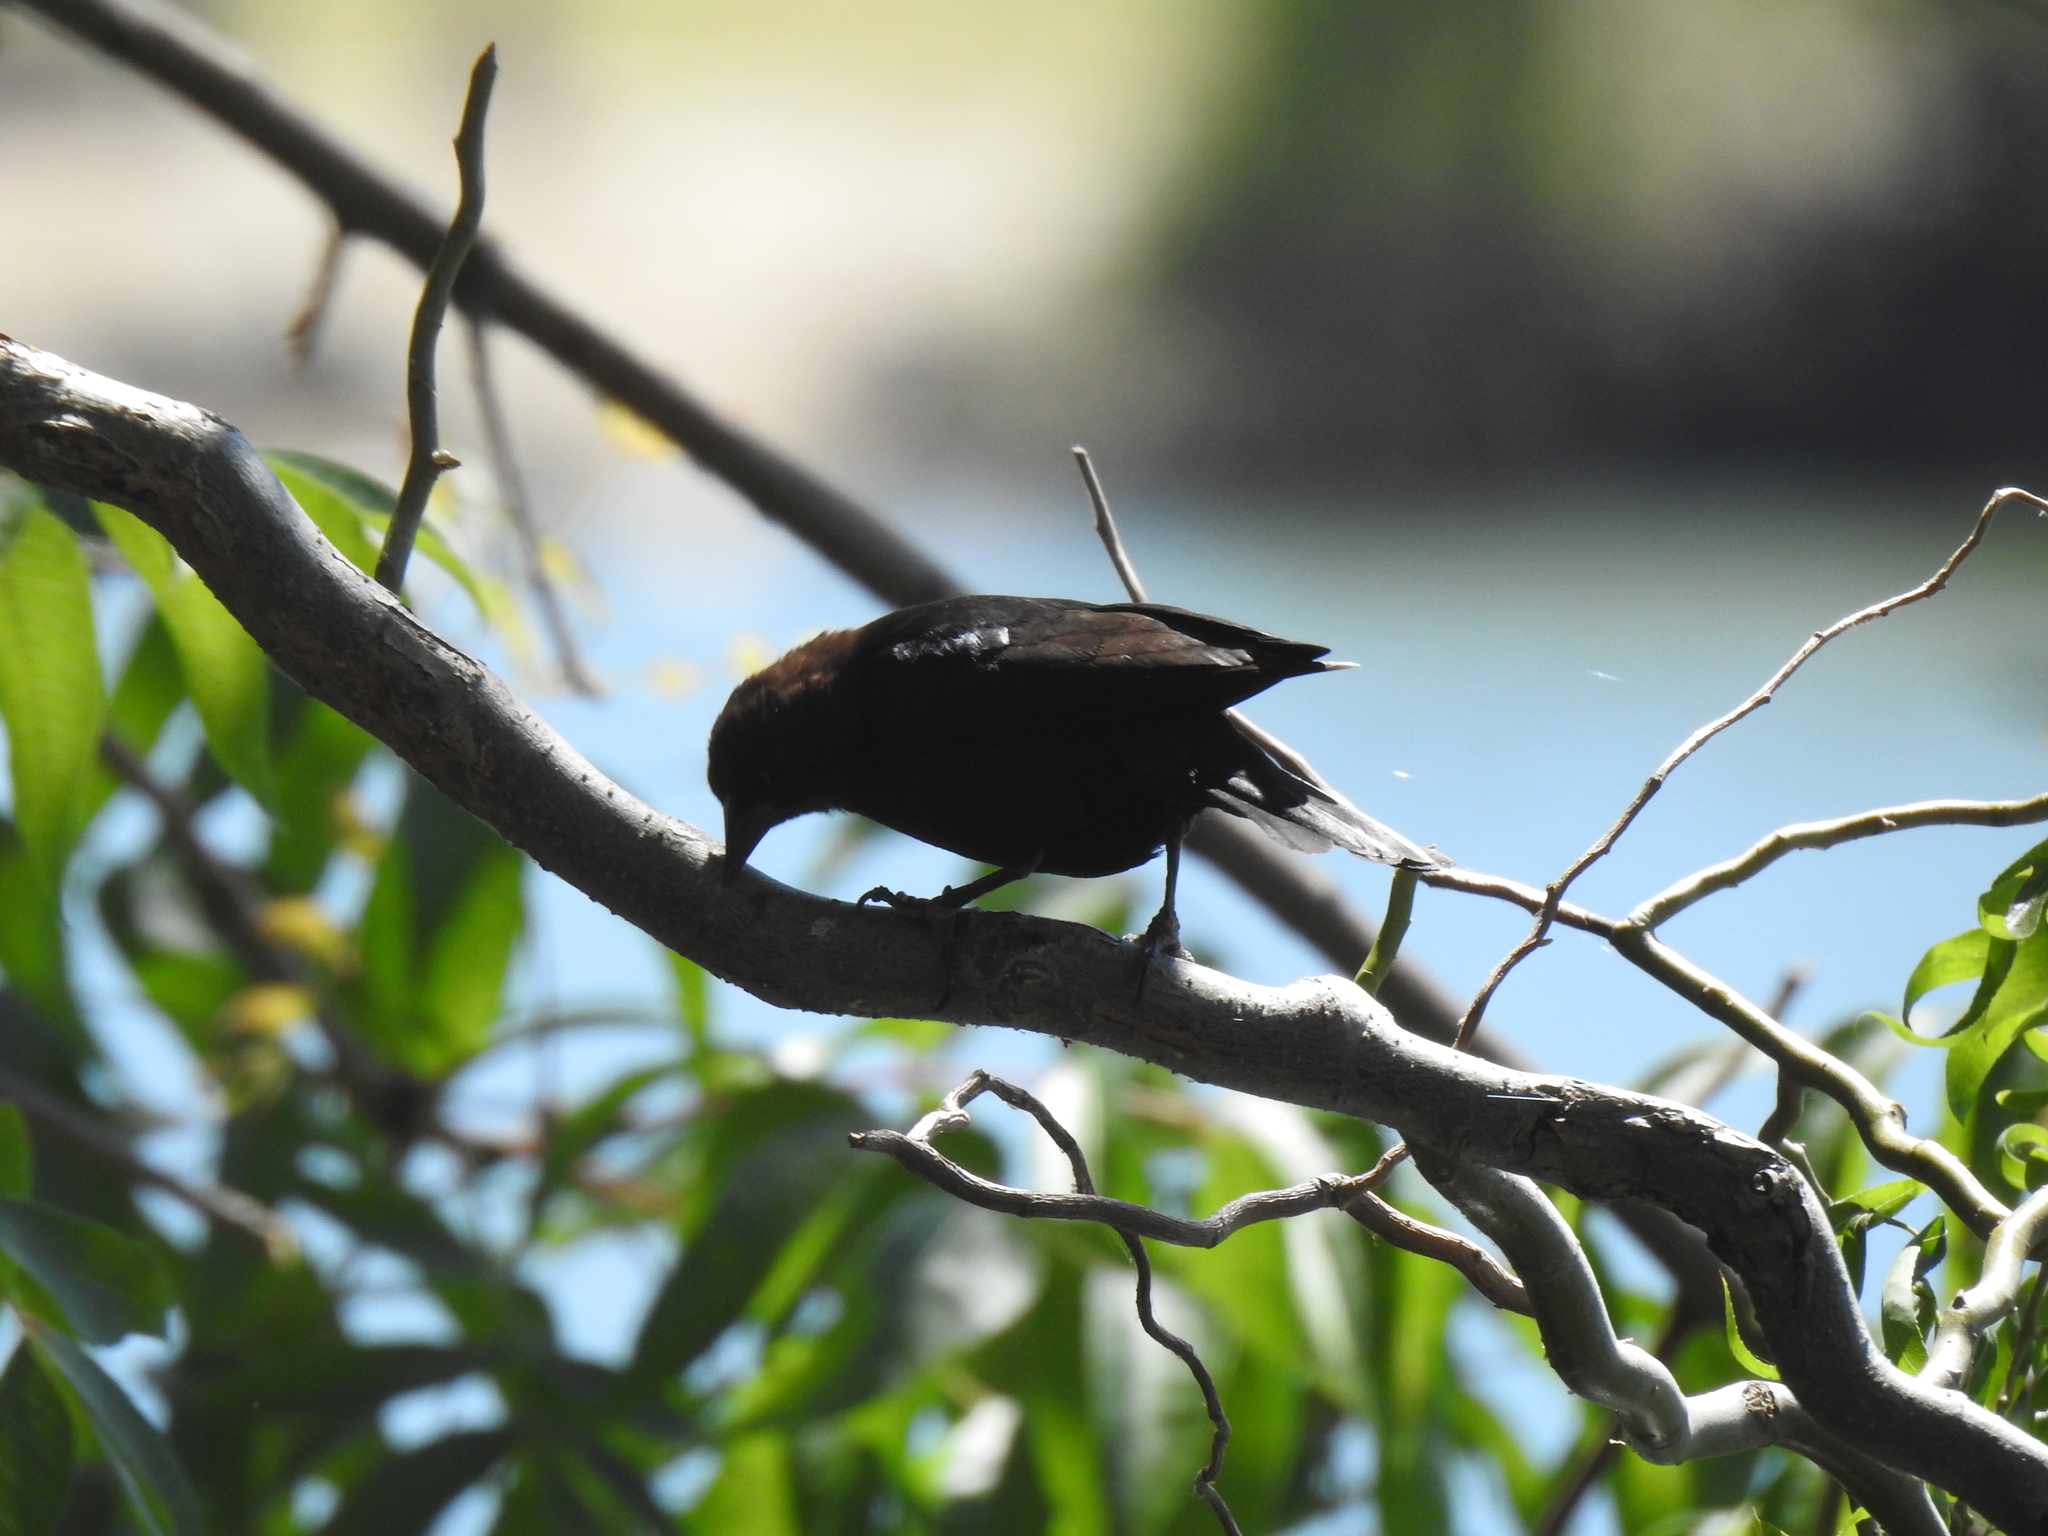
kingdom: Animalia
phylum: Chordata
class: Aves
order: Passeriformes
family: Icteridae
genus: Molothrus
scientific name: Molothrus ater
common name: Brown-headed cowbird
